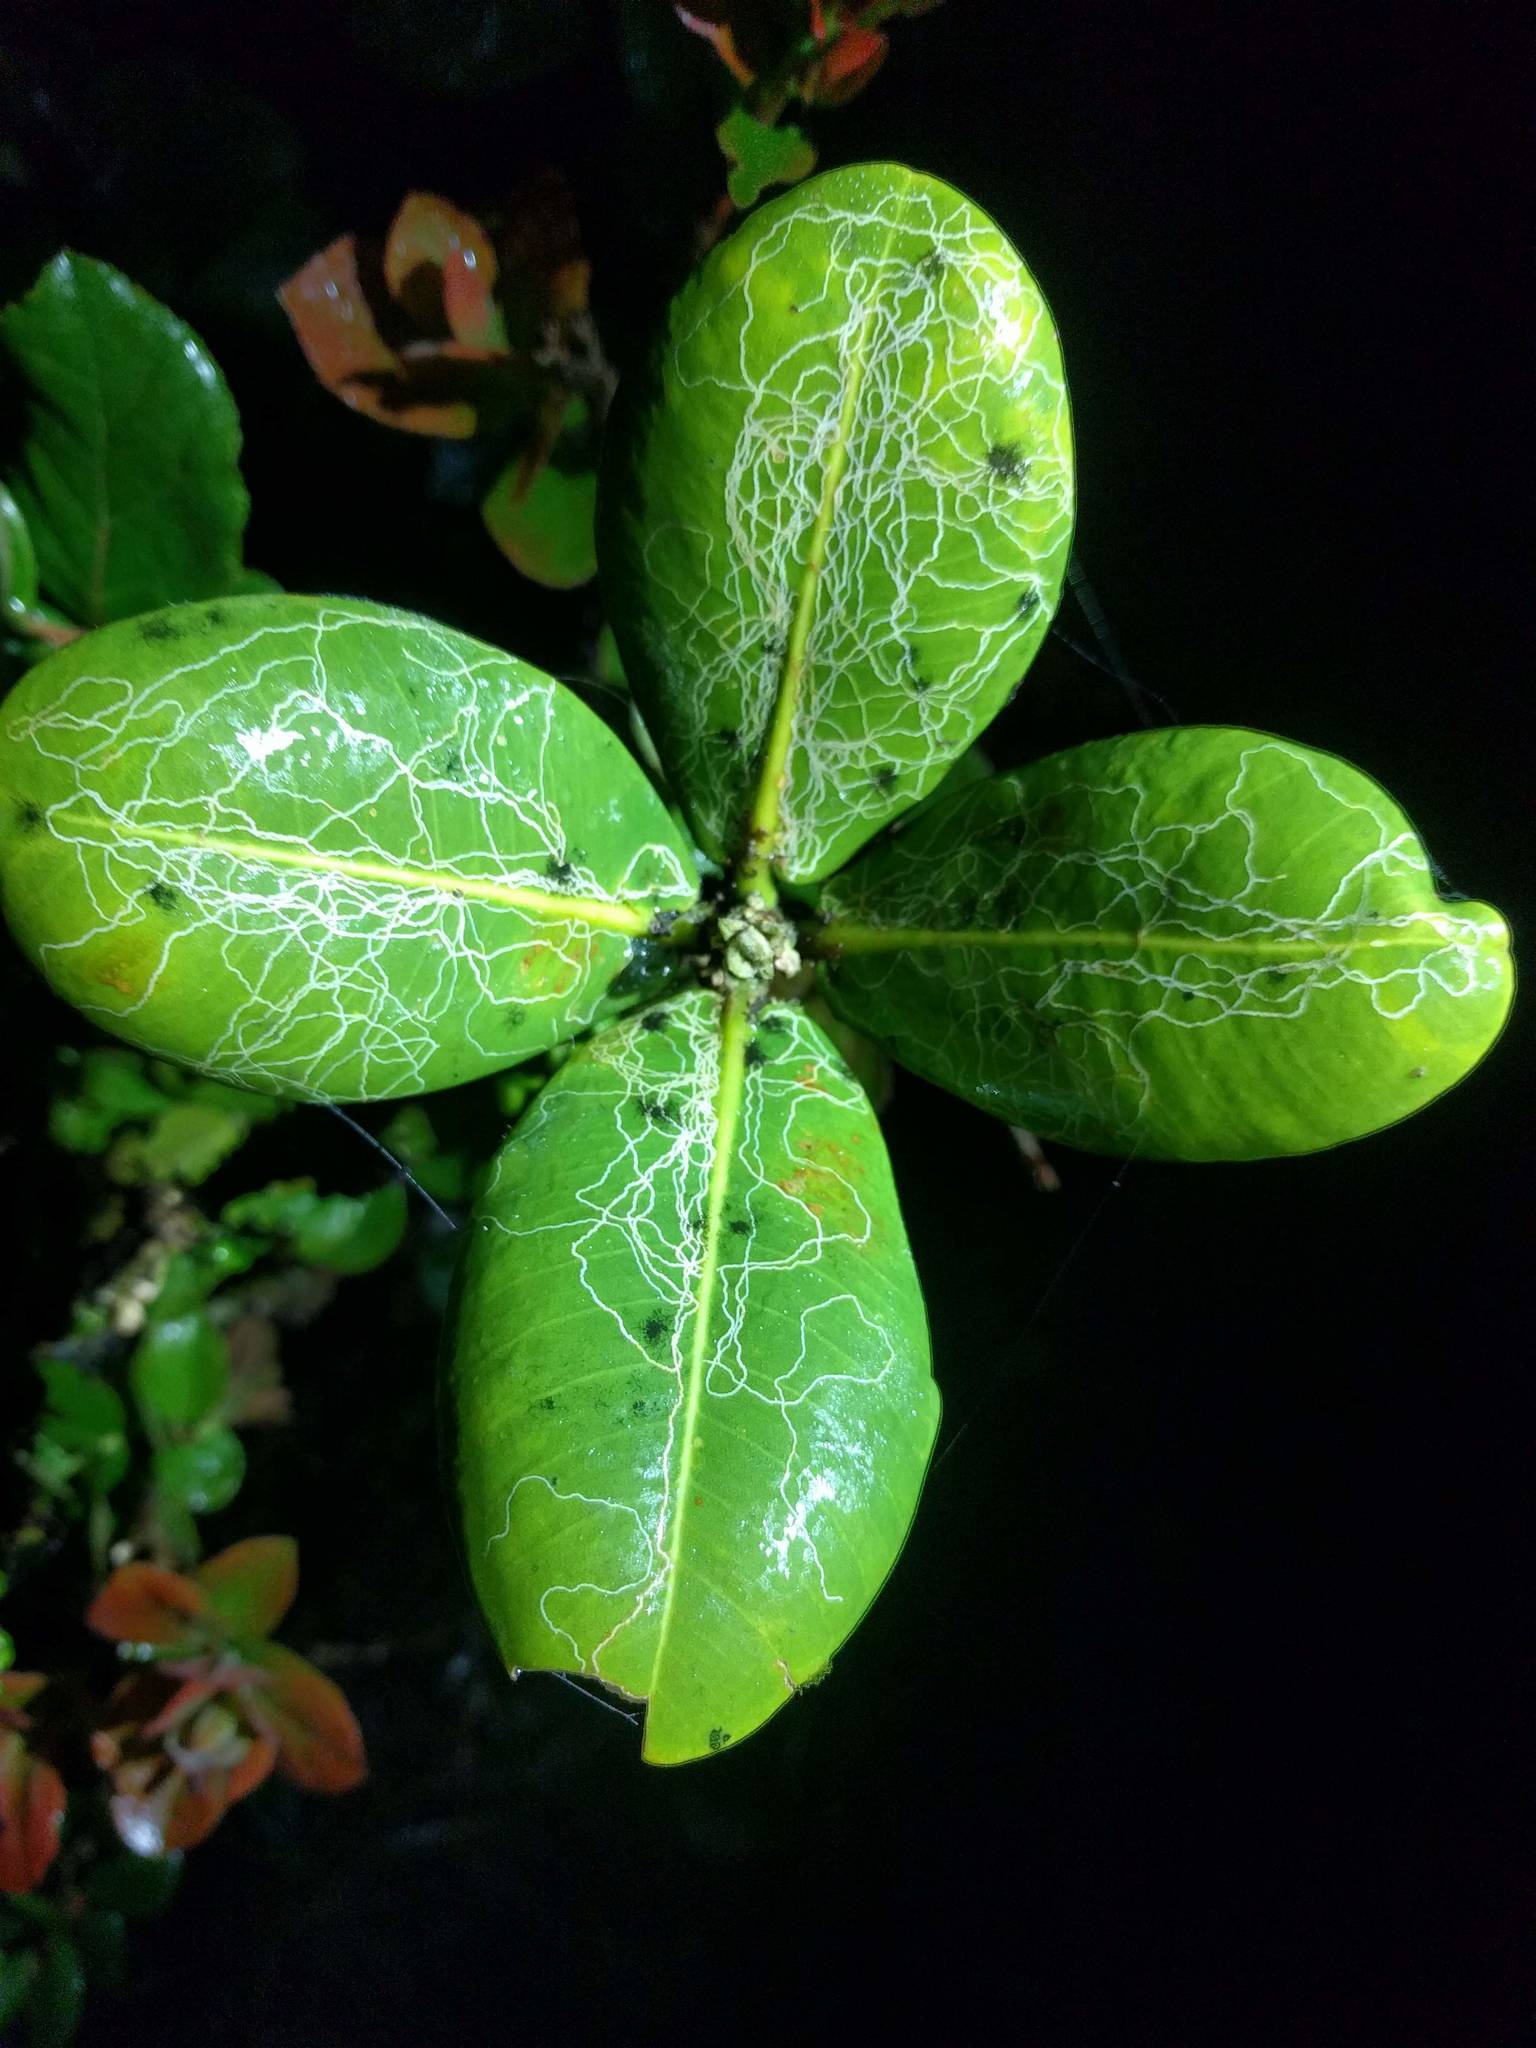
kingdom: Animalia
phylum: Arthropoda
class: Insecta
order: Lepidoptera
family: Opostegidae
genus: Paralopostega
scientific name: Paralopostega filiforma
